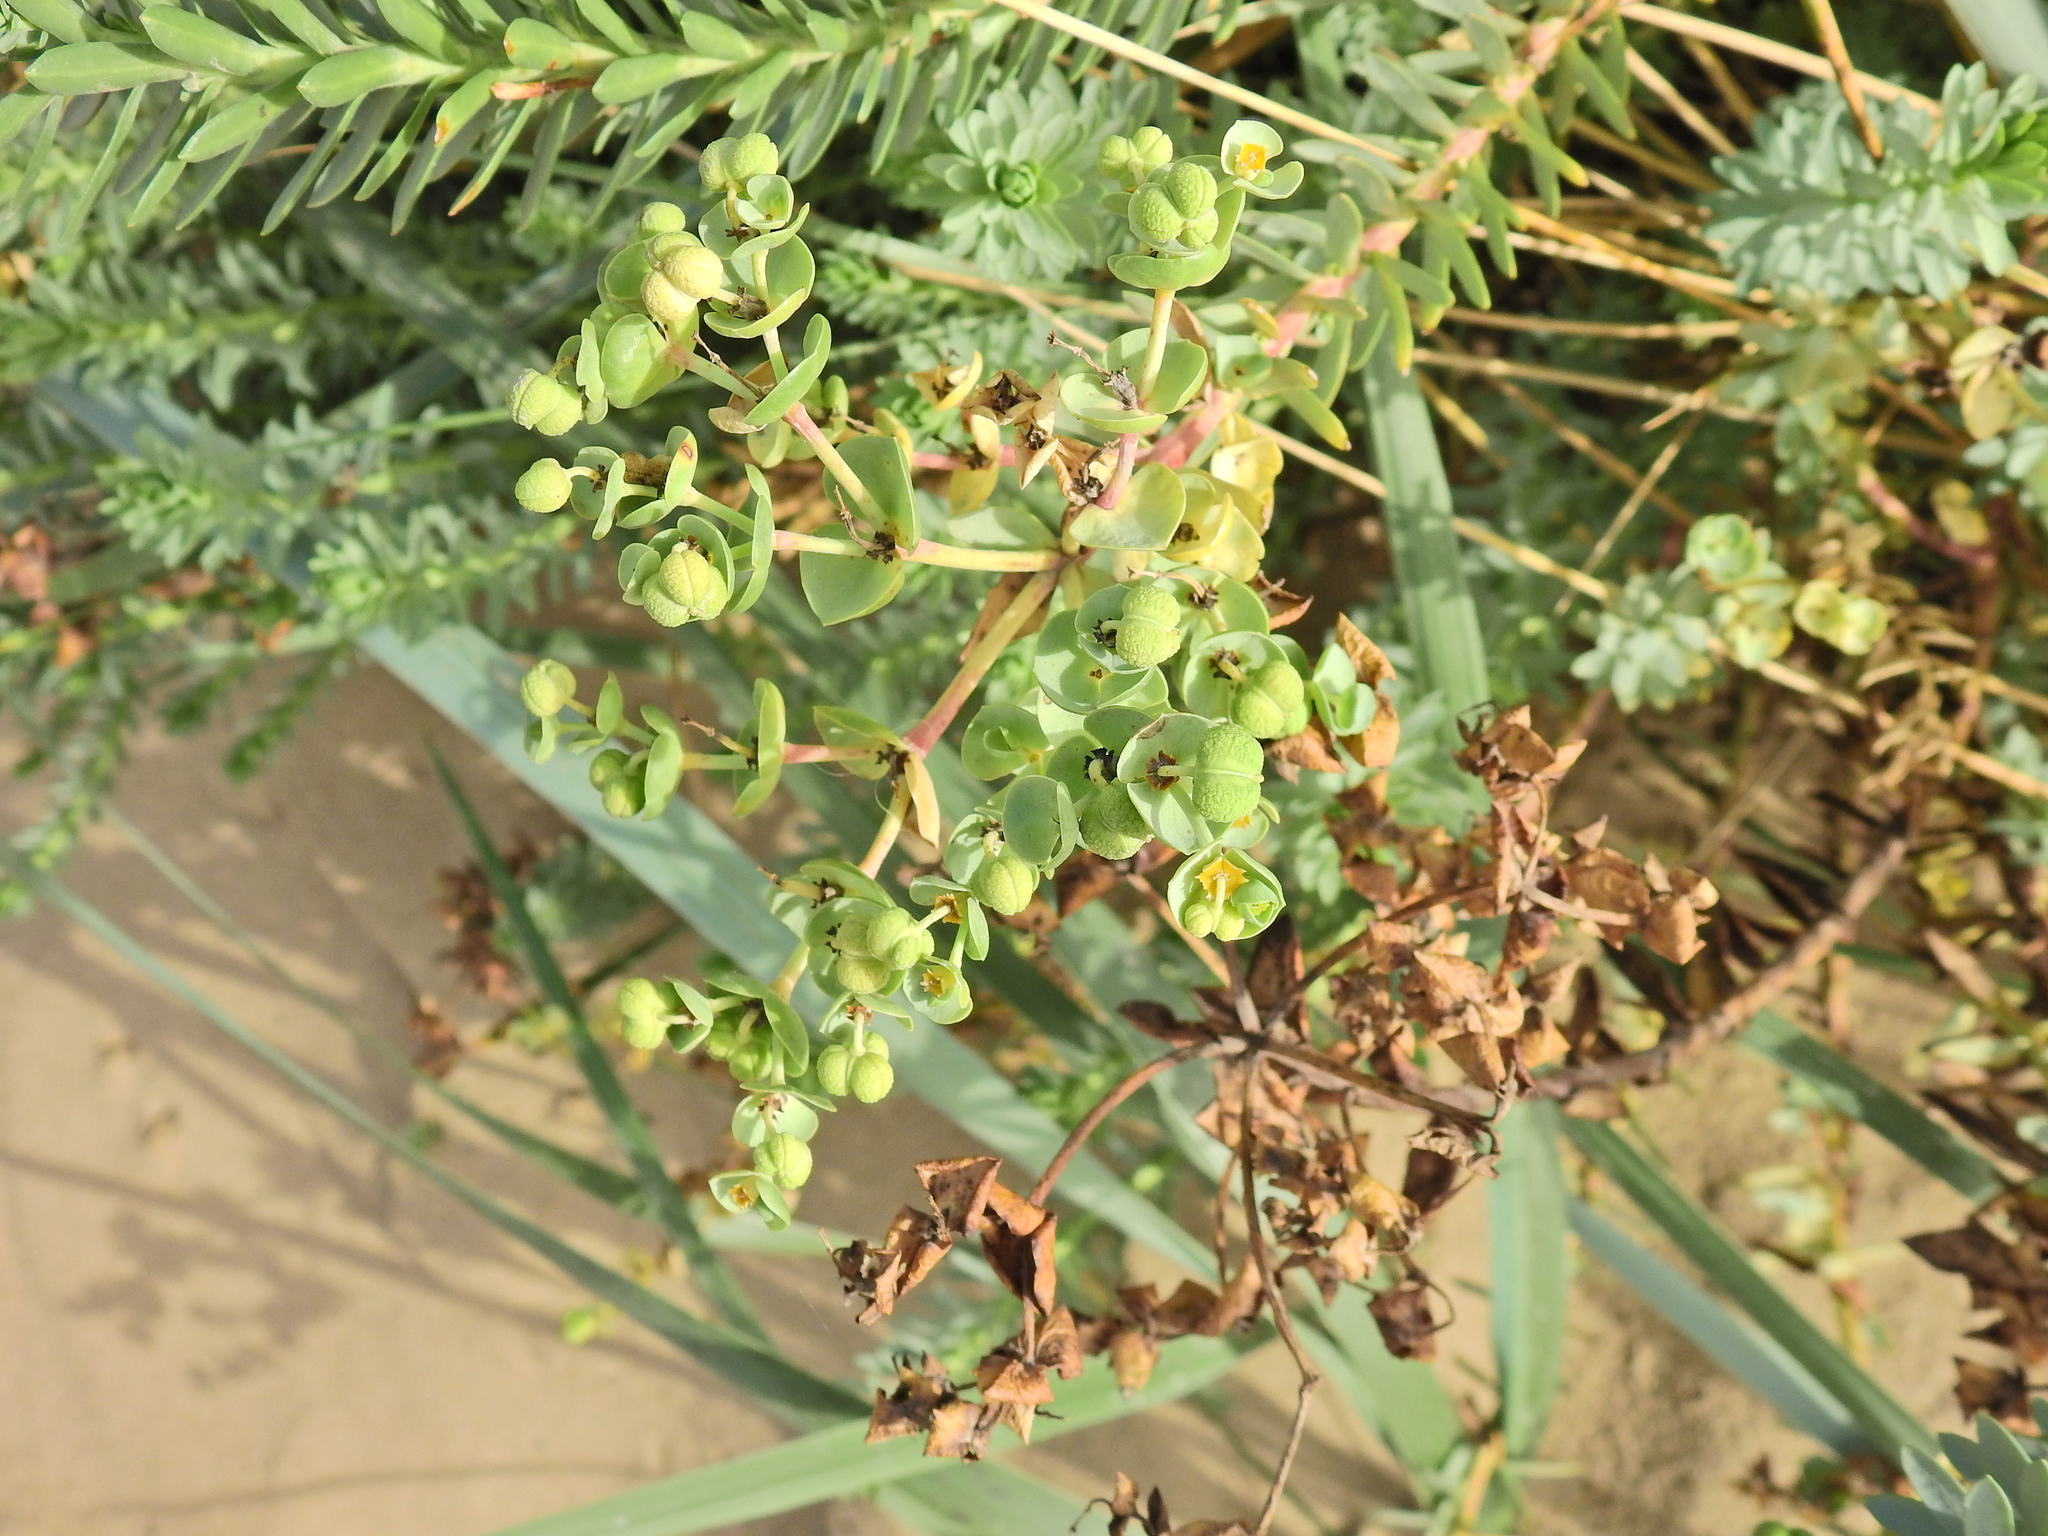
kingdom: Plantae
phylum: Tracheophyta
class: Magnoliopsida
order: Malpighiales
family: Euphorbiaceae
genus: Euphorbia
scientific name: Euphorbia paralias
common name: Sea spurge
